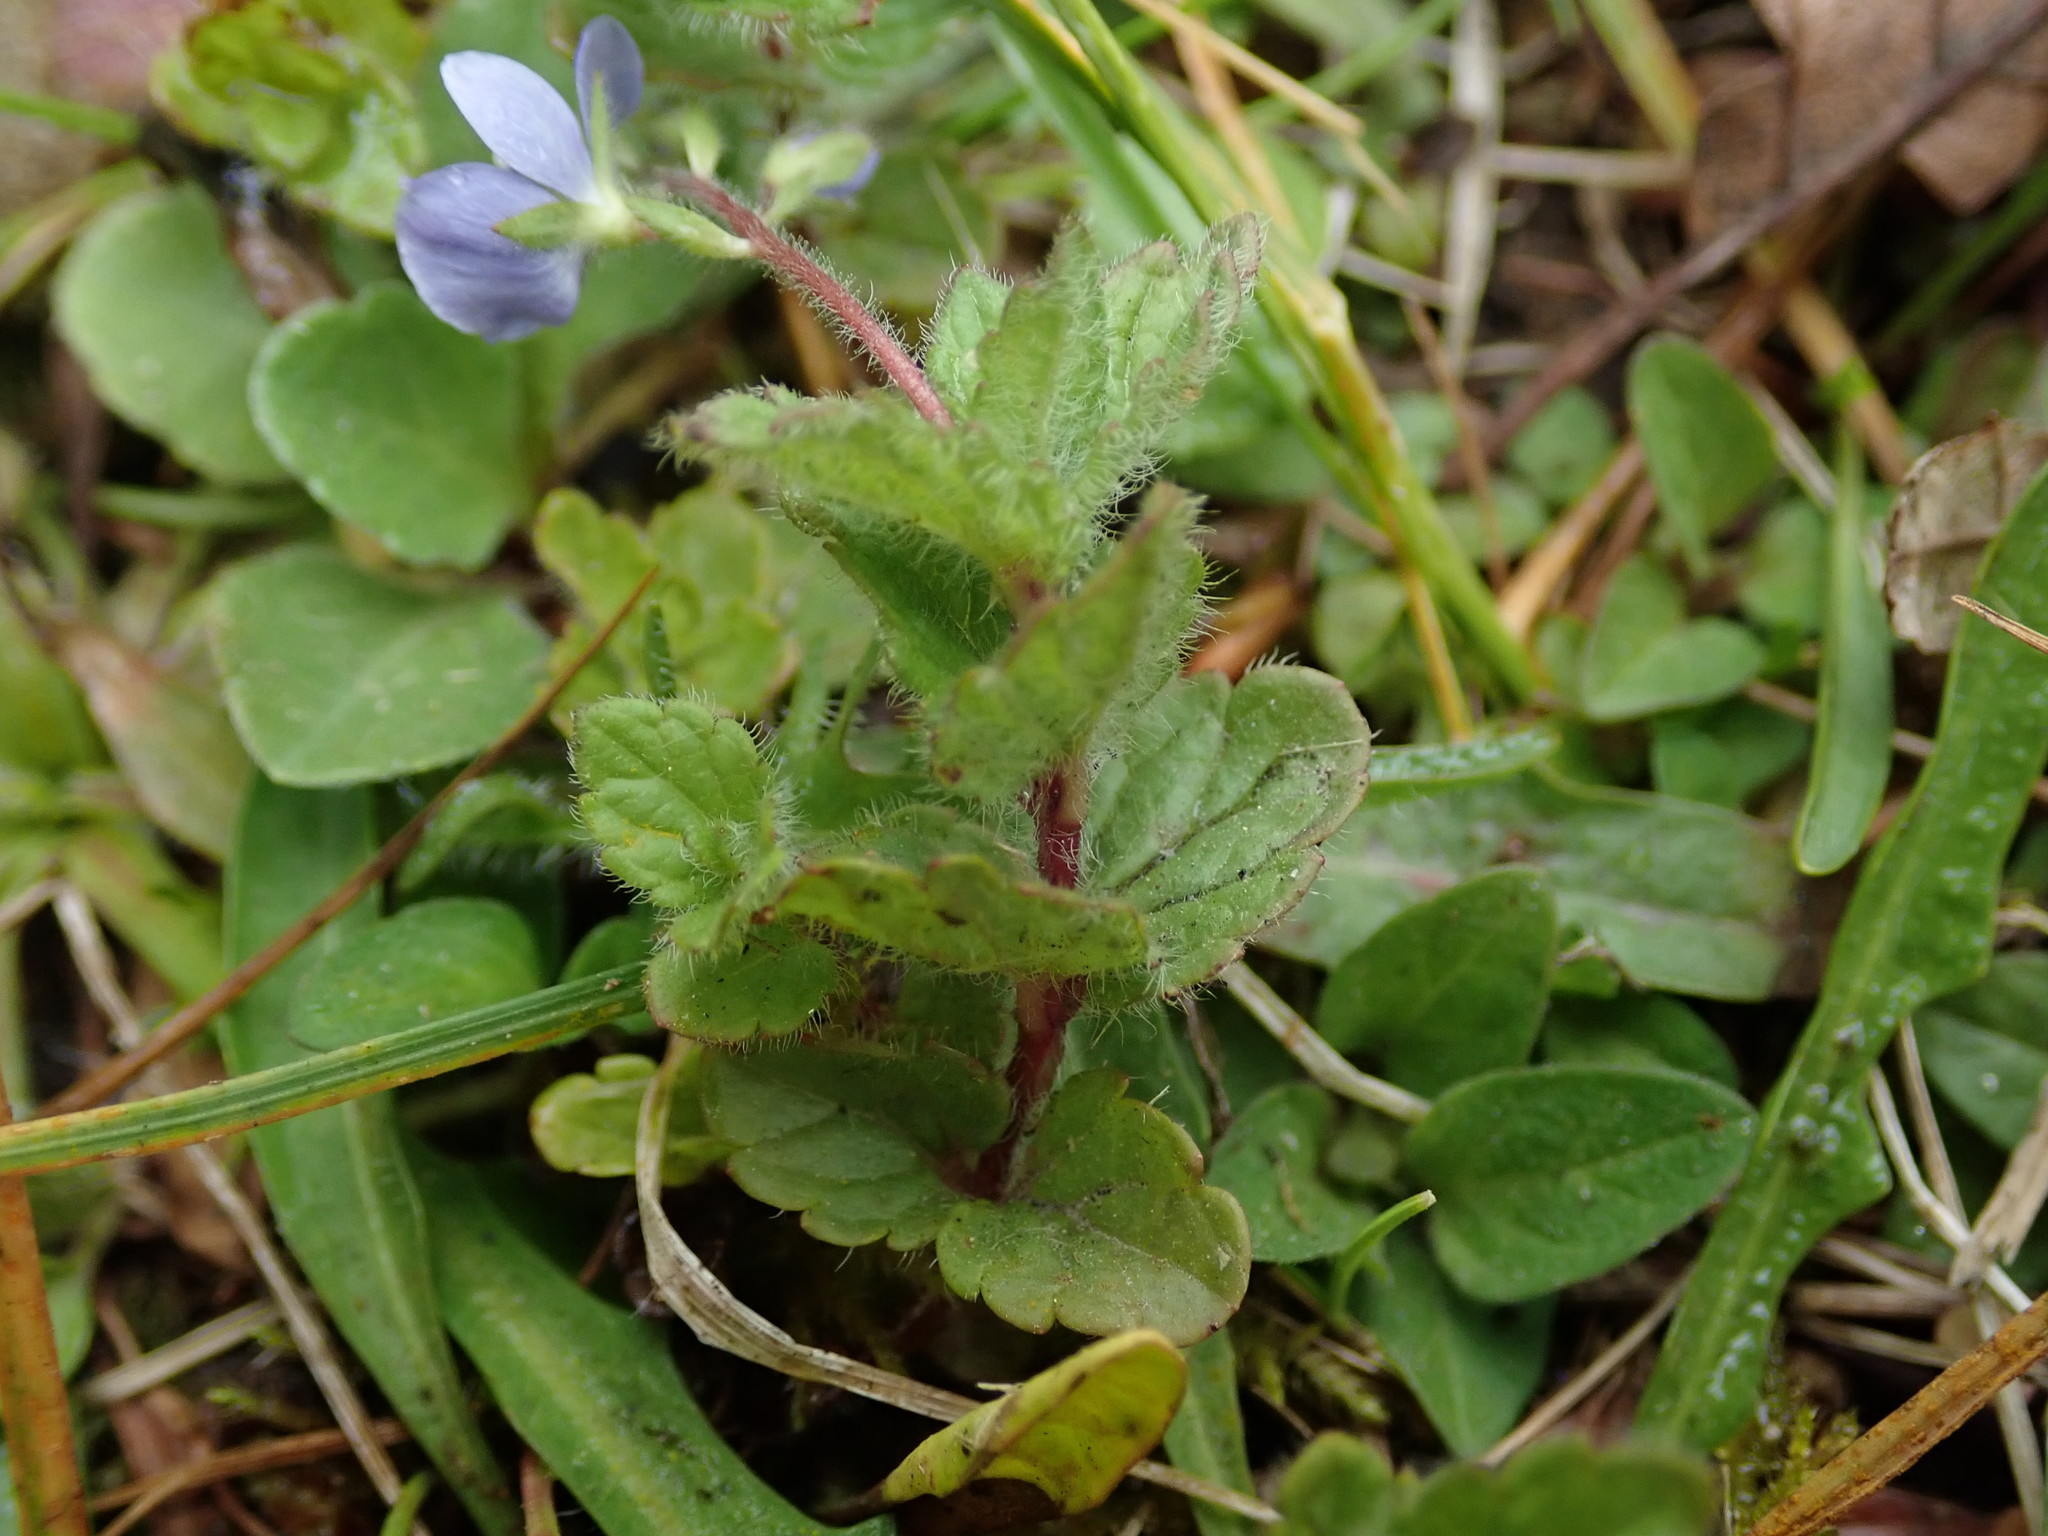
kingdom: Plantae
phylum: Tracheophyta
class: Magnoliopsida
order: Lamiales
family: Plantaginaceae
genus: Veronica
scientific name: Veronica chamaedrys
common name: Germander speedwell
